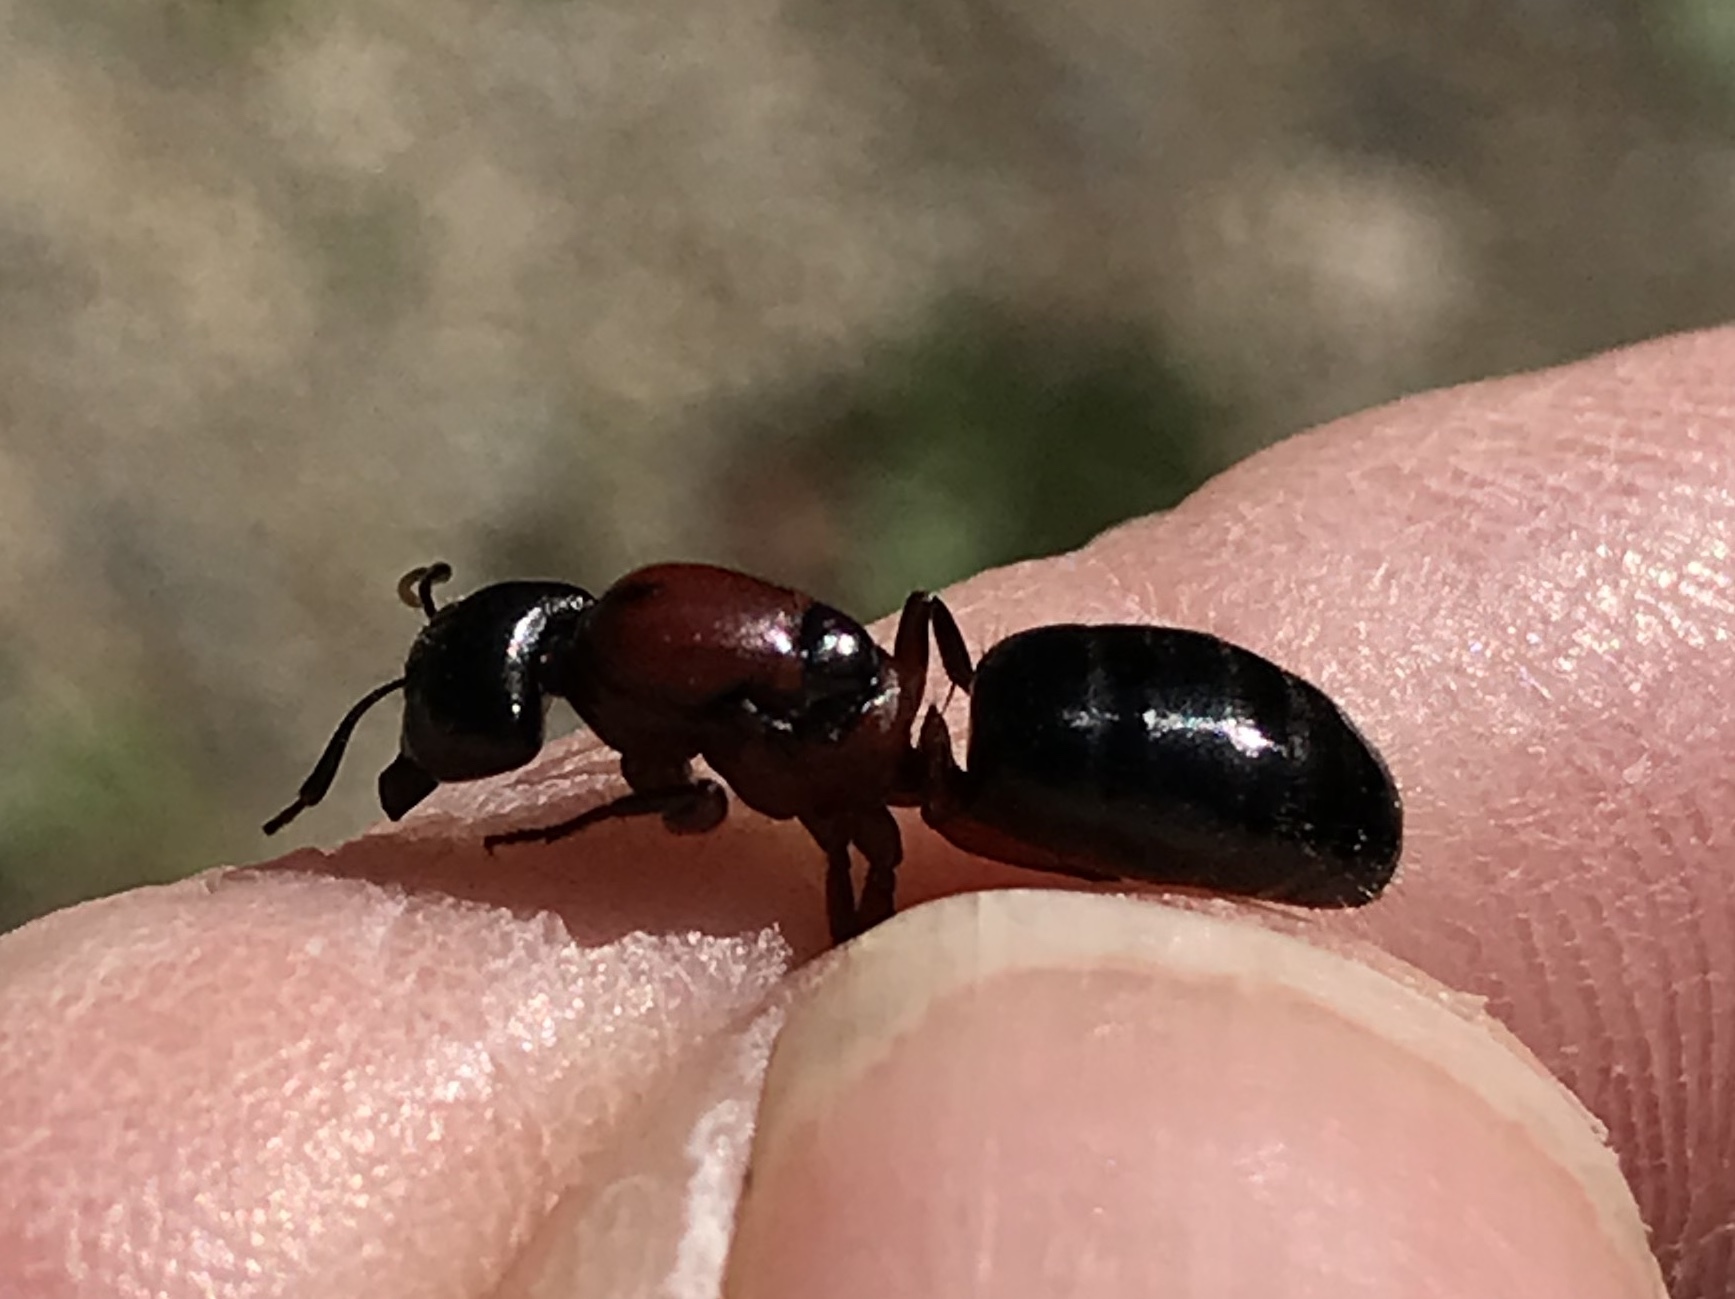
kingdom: Animalia
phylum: Arthropoda
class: Insecta
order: Hymenoptera
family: Formicidae
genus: Camponotus
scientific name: Camponotus
